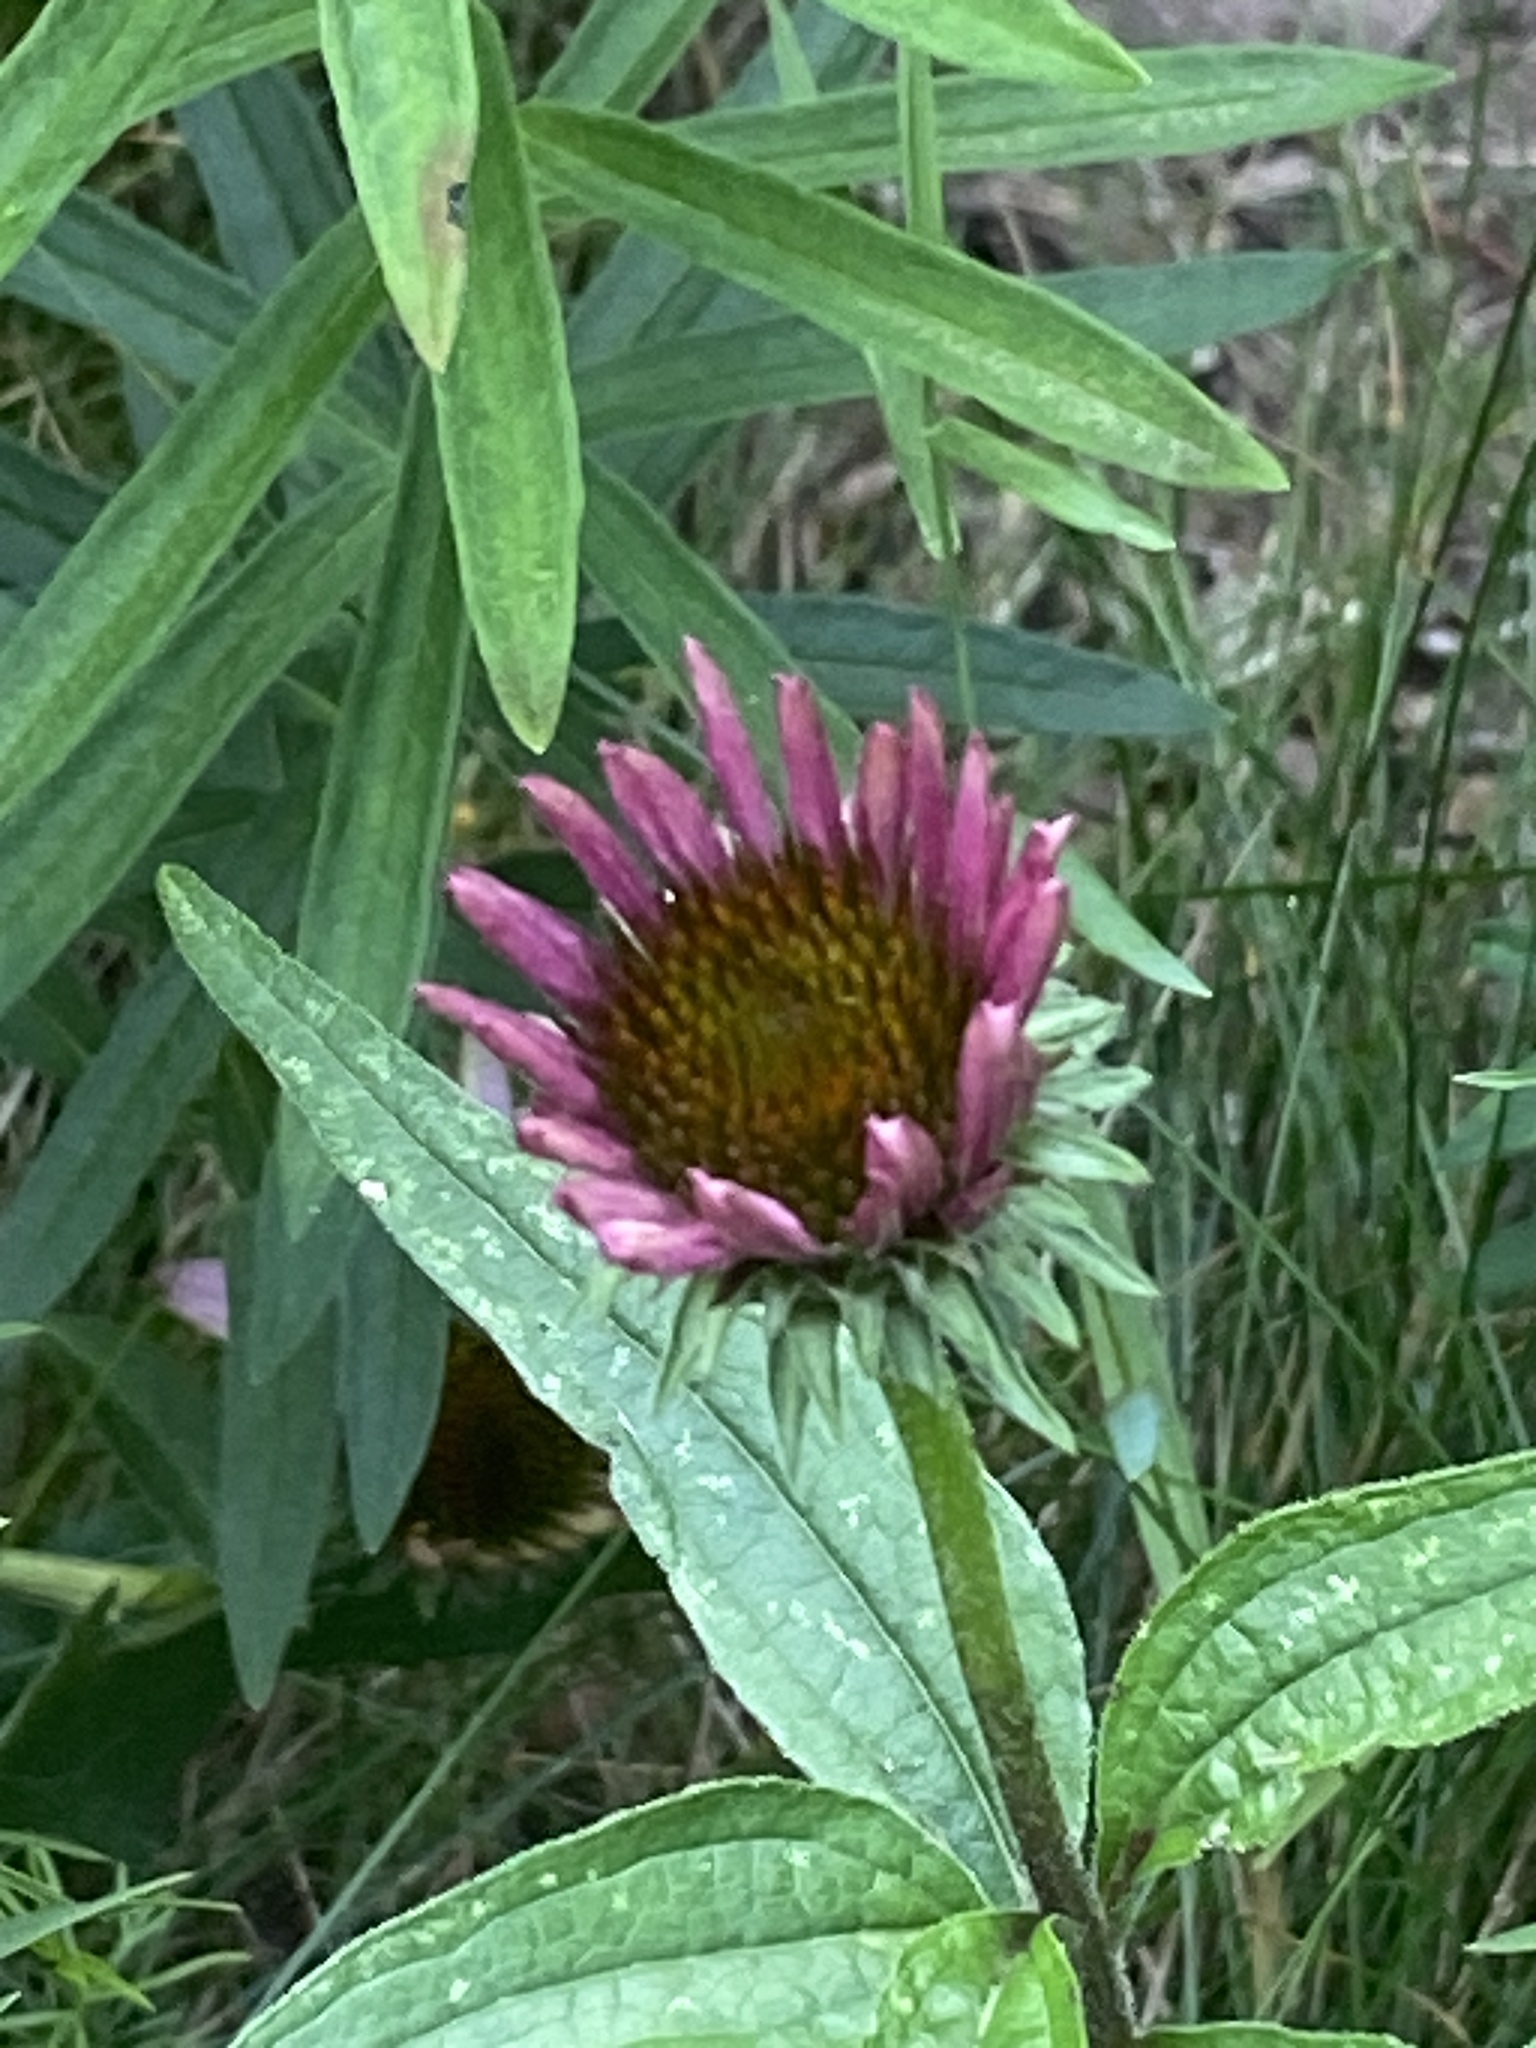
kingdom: Plantae
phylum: Tracheophyta
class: Magnoliopsida
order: Asterales
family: Asteraceae
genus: Echinacea
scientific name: Echinacea purpurea
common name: Broad-leaved purple coneflower
